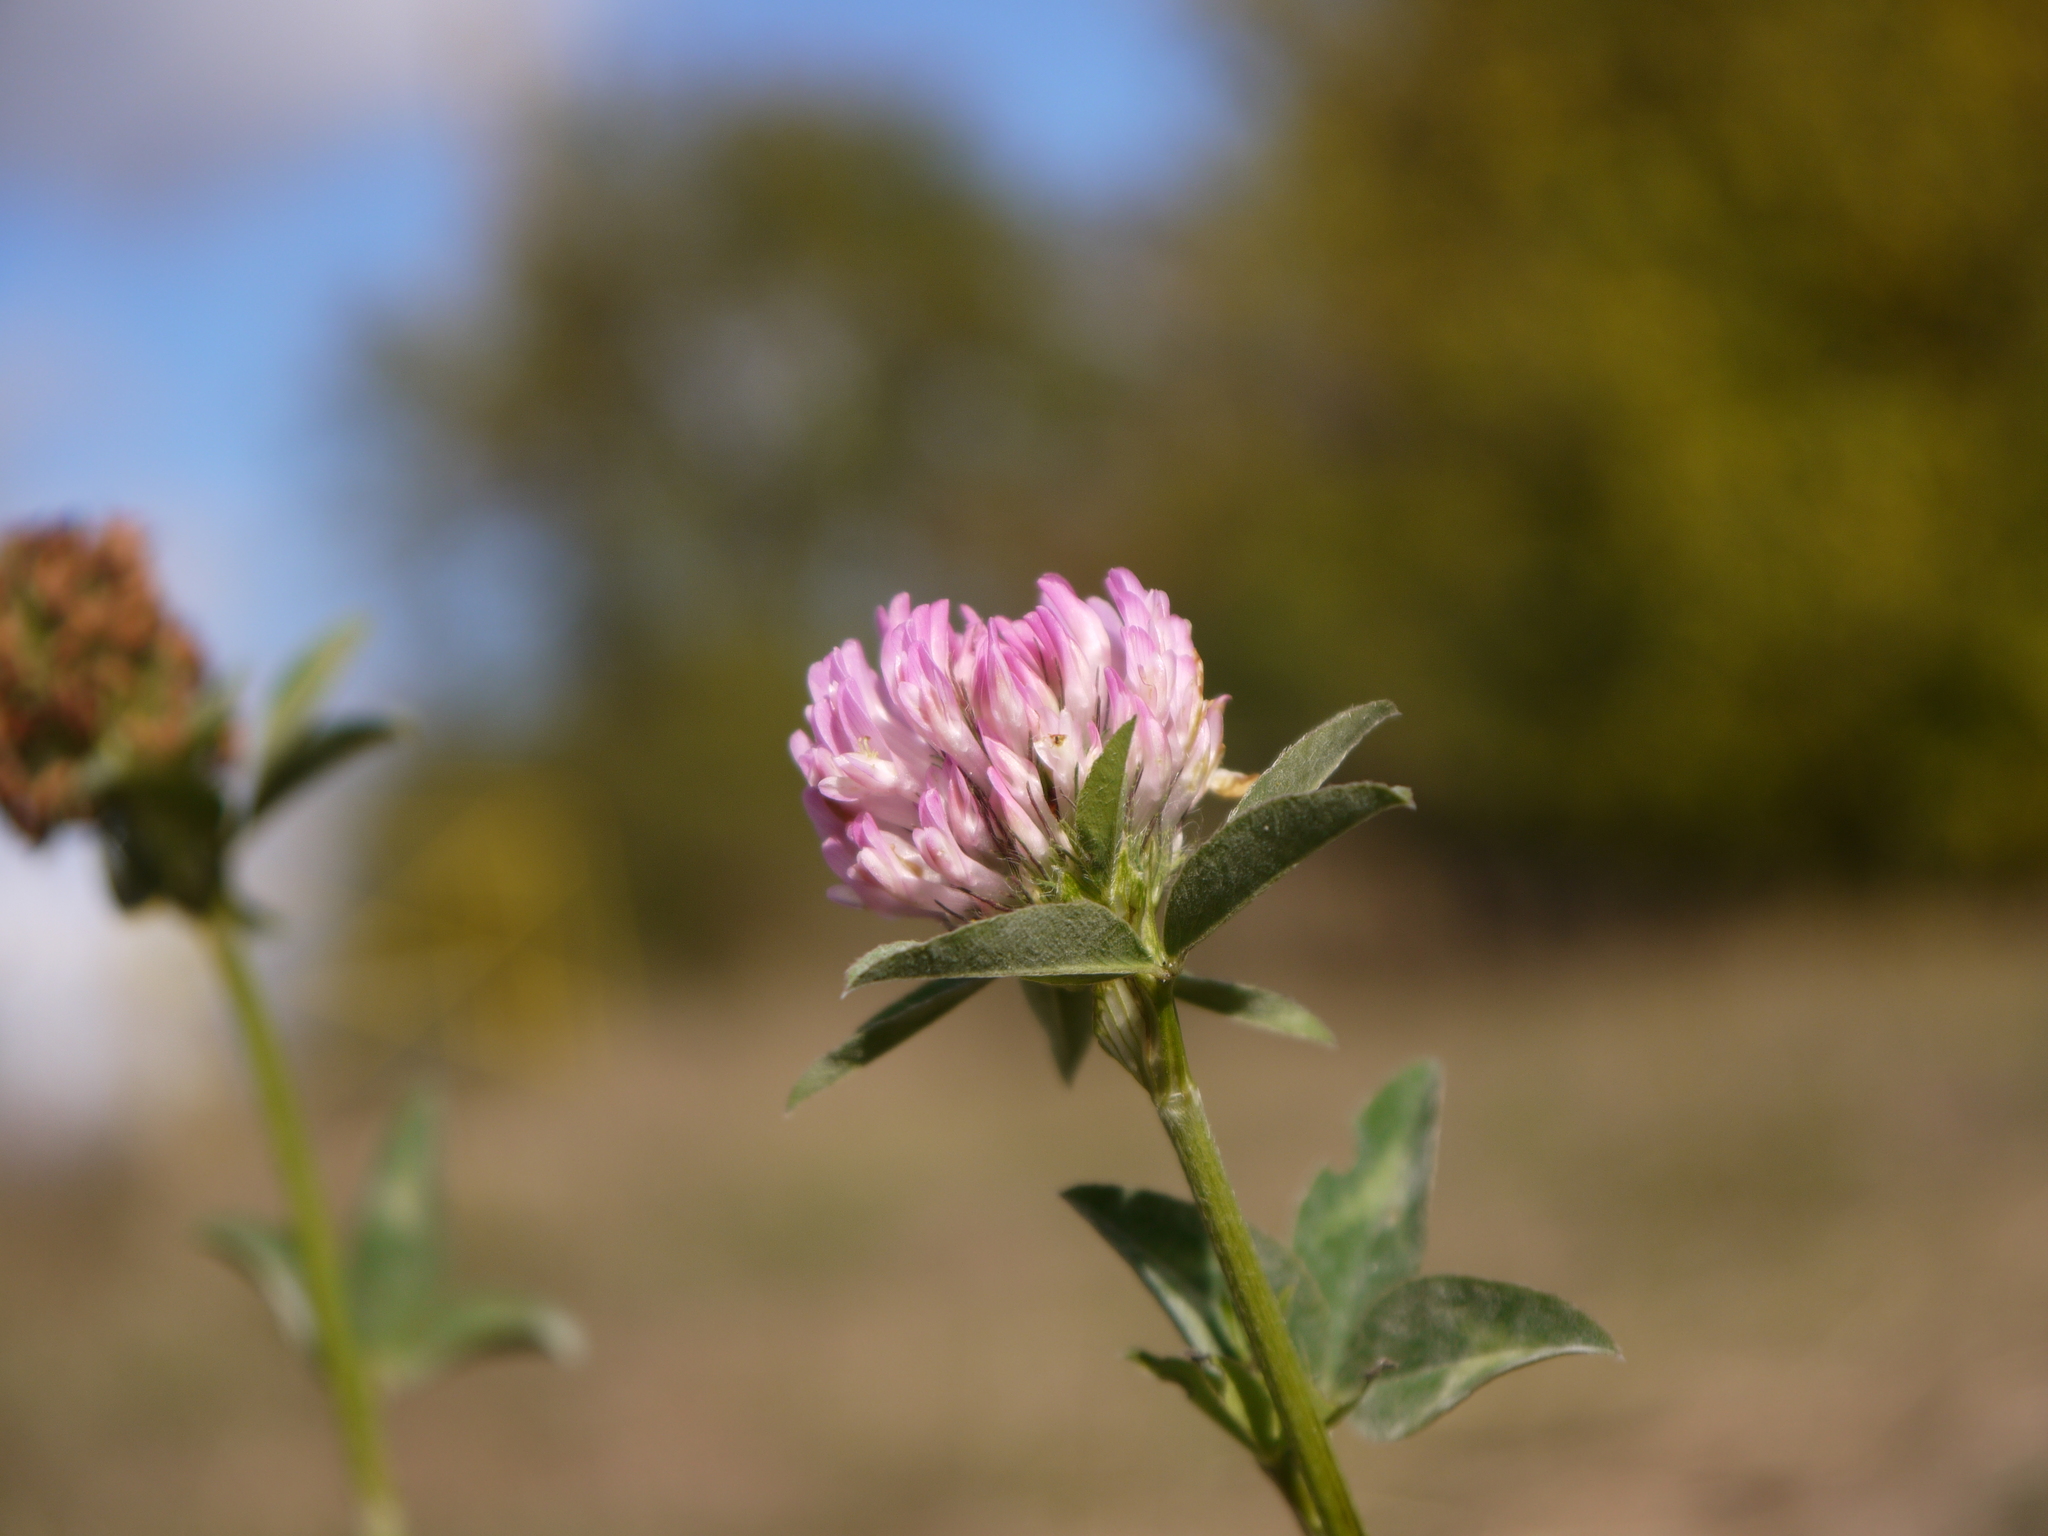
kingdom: Plantae
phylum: Tracheophyta
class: Magnoliopsida
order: Fabales
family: Fabaceae
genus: Trifolium
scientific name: Trifolium pratense
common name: Red clover
